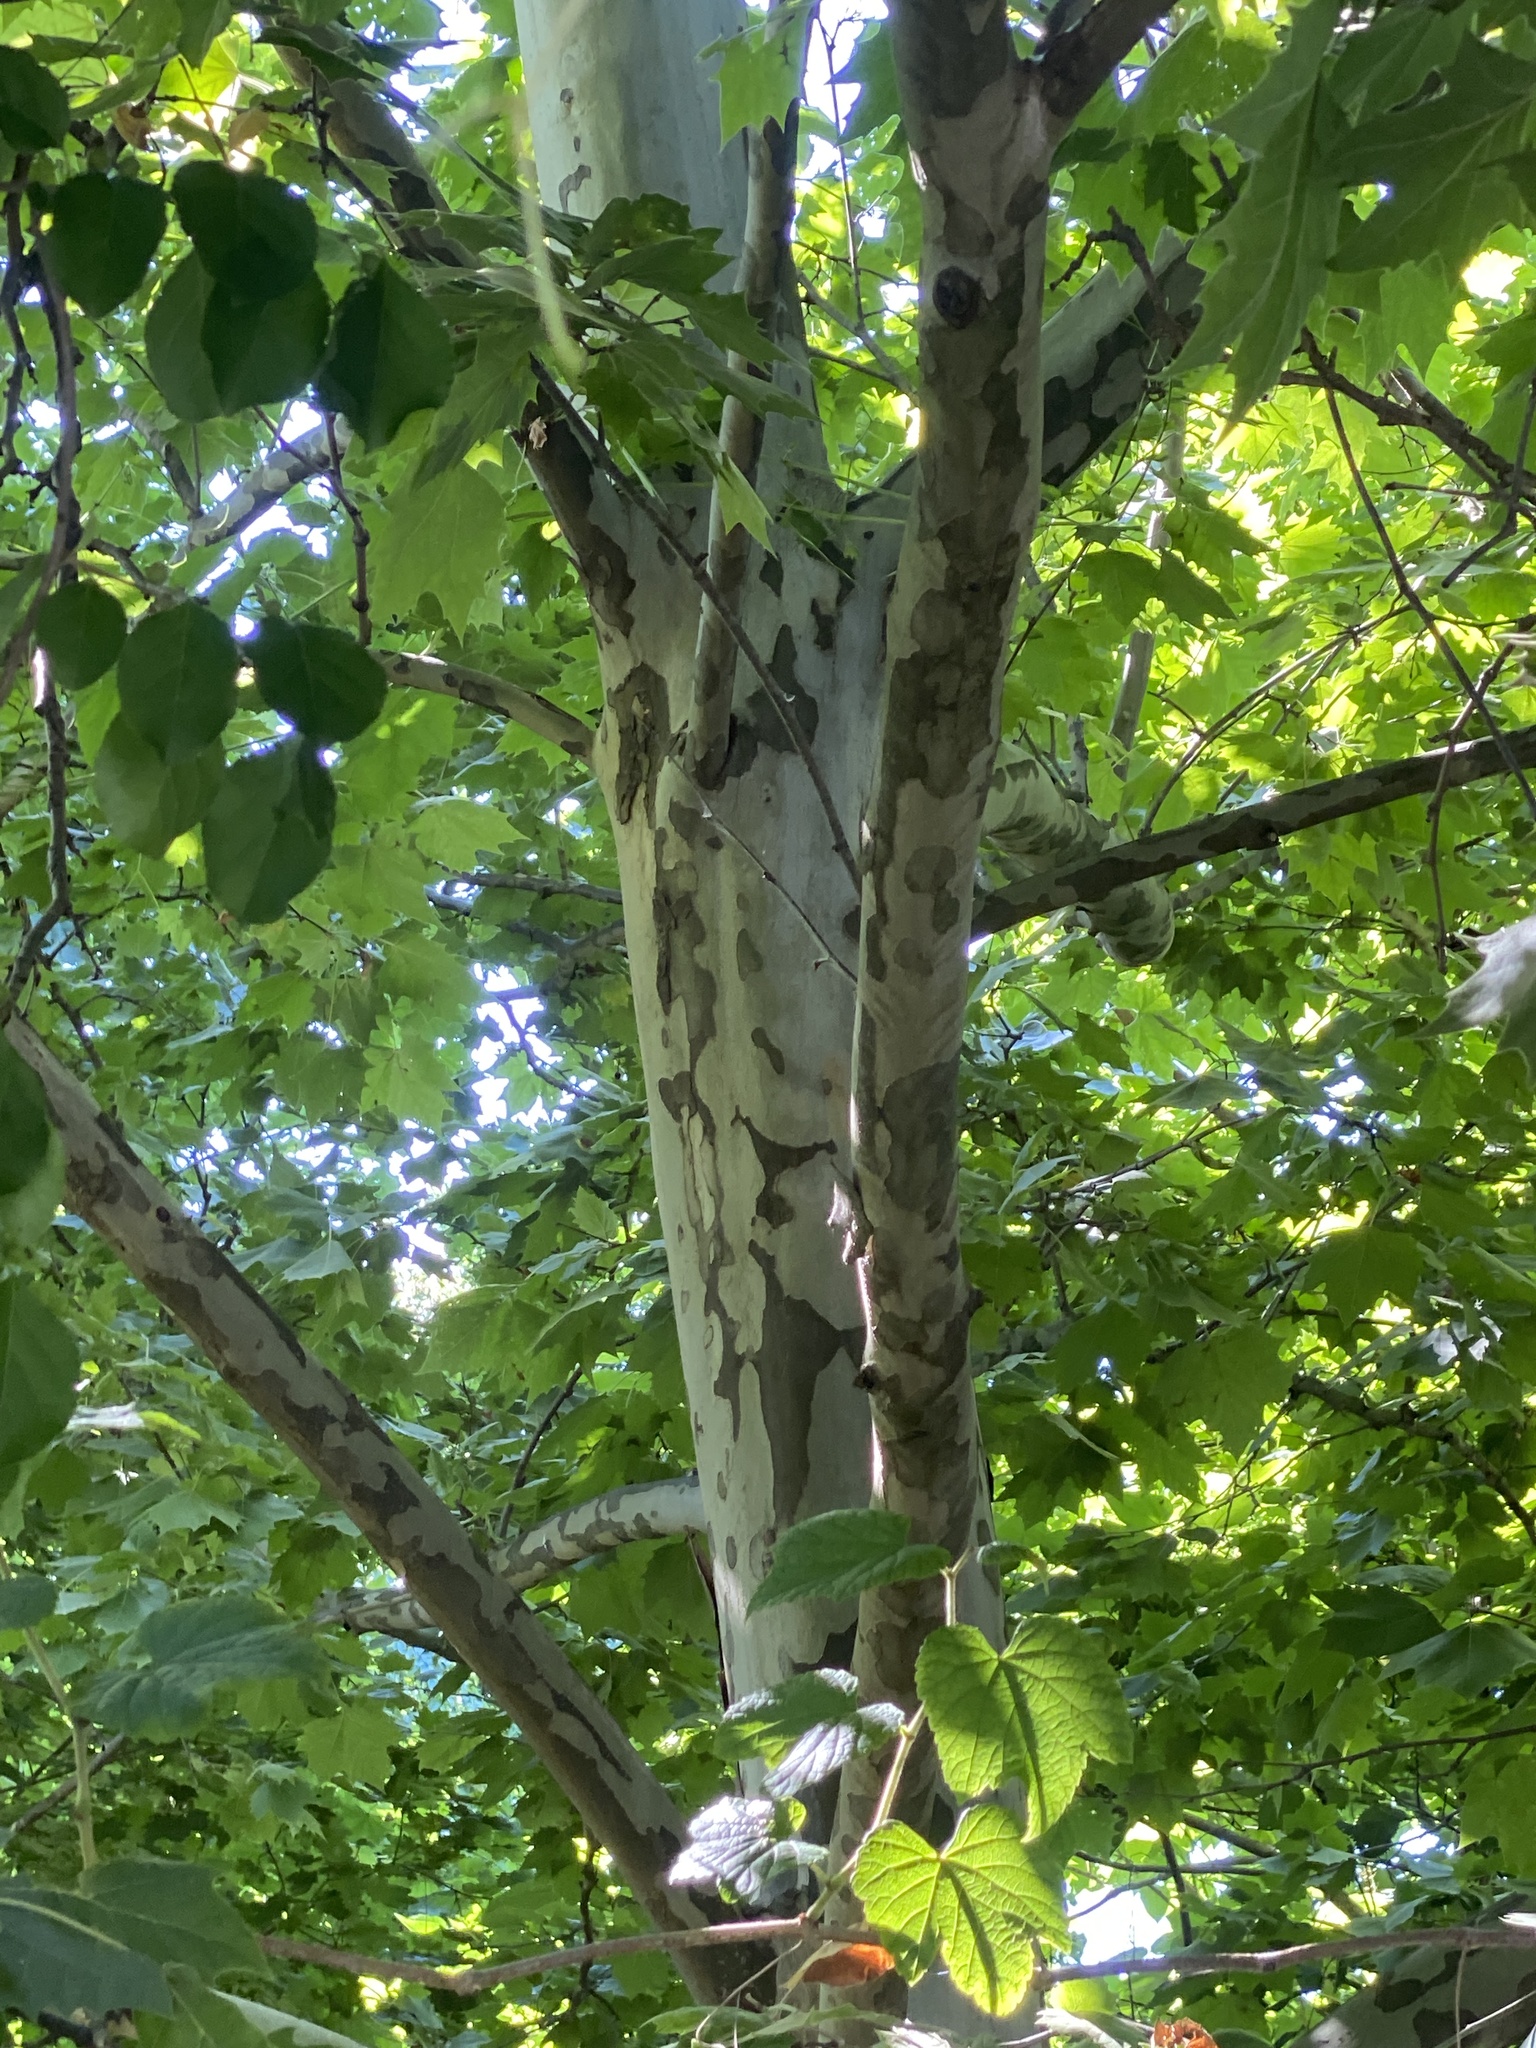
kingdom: Plantae
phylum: Tracheophyta
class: Magnoliopsida
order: Proteales
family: Platanaceae
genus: Platanus
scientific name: Platanus occidentalis
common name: American sycamore
